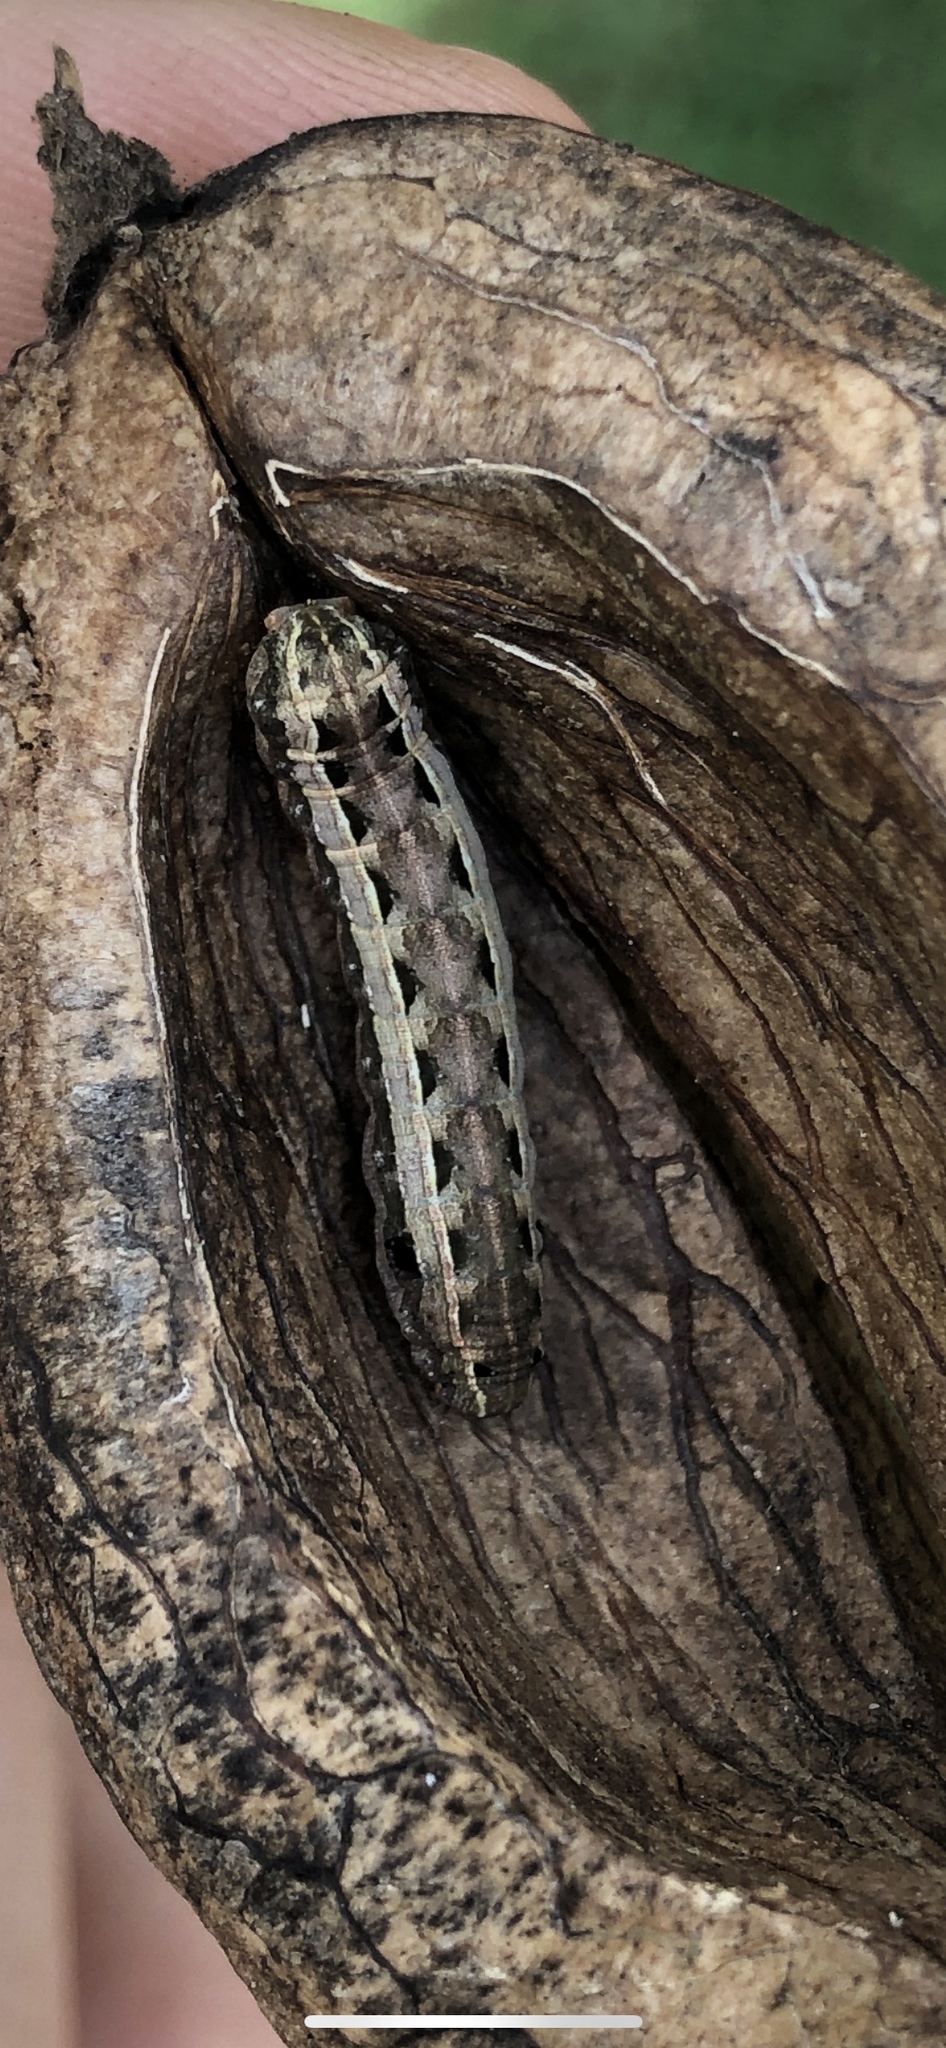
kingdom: Animalia
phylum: Arthropoda
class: Insecta
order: Lepidoptera
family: Noctuidae
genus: Spodoptera
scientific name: Spodoptera ornithogalli
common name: Yellow-striped armyworm
